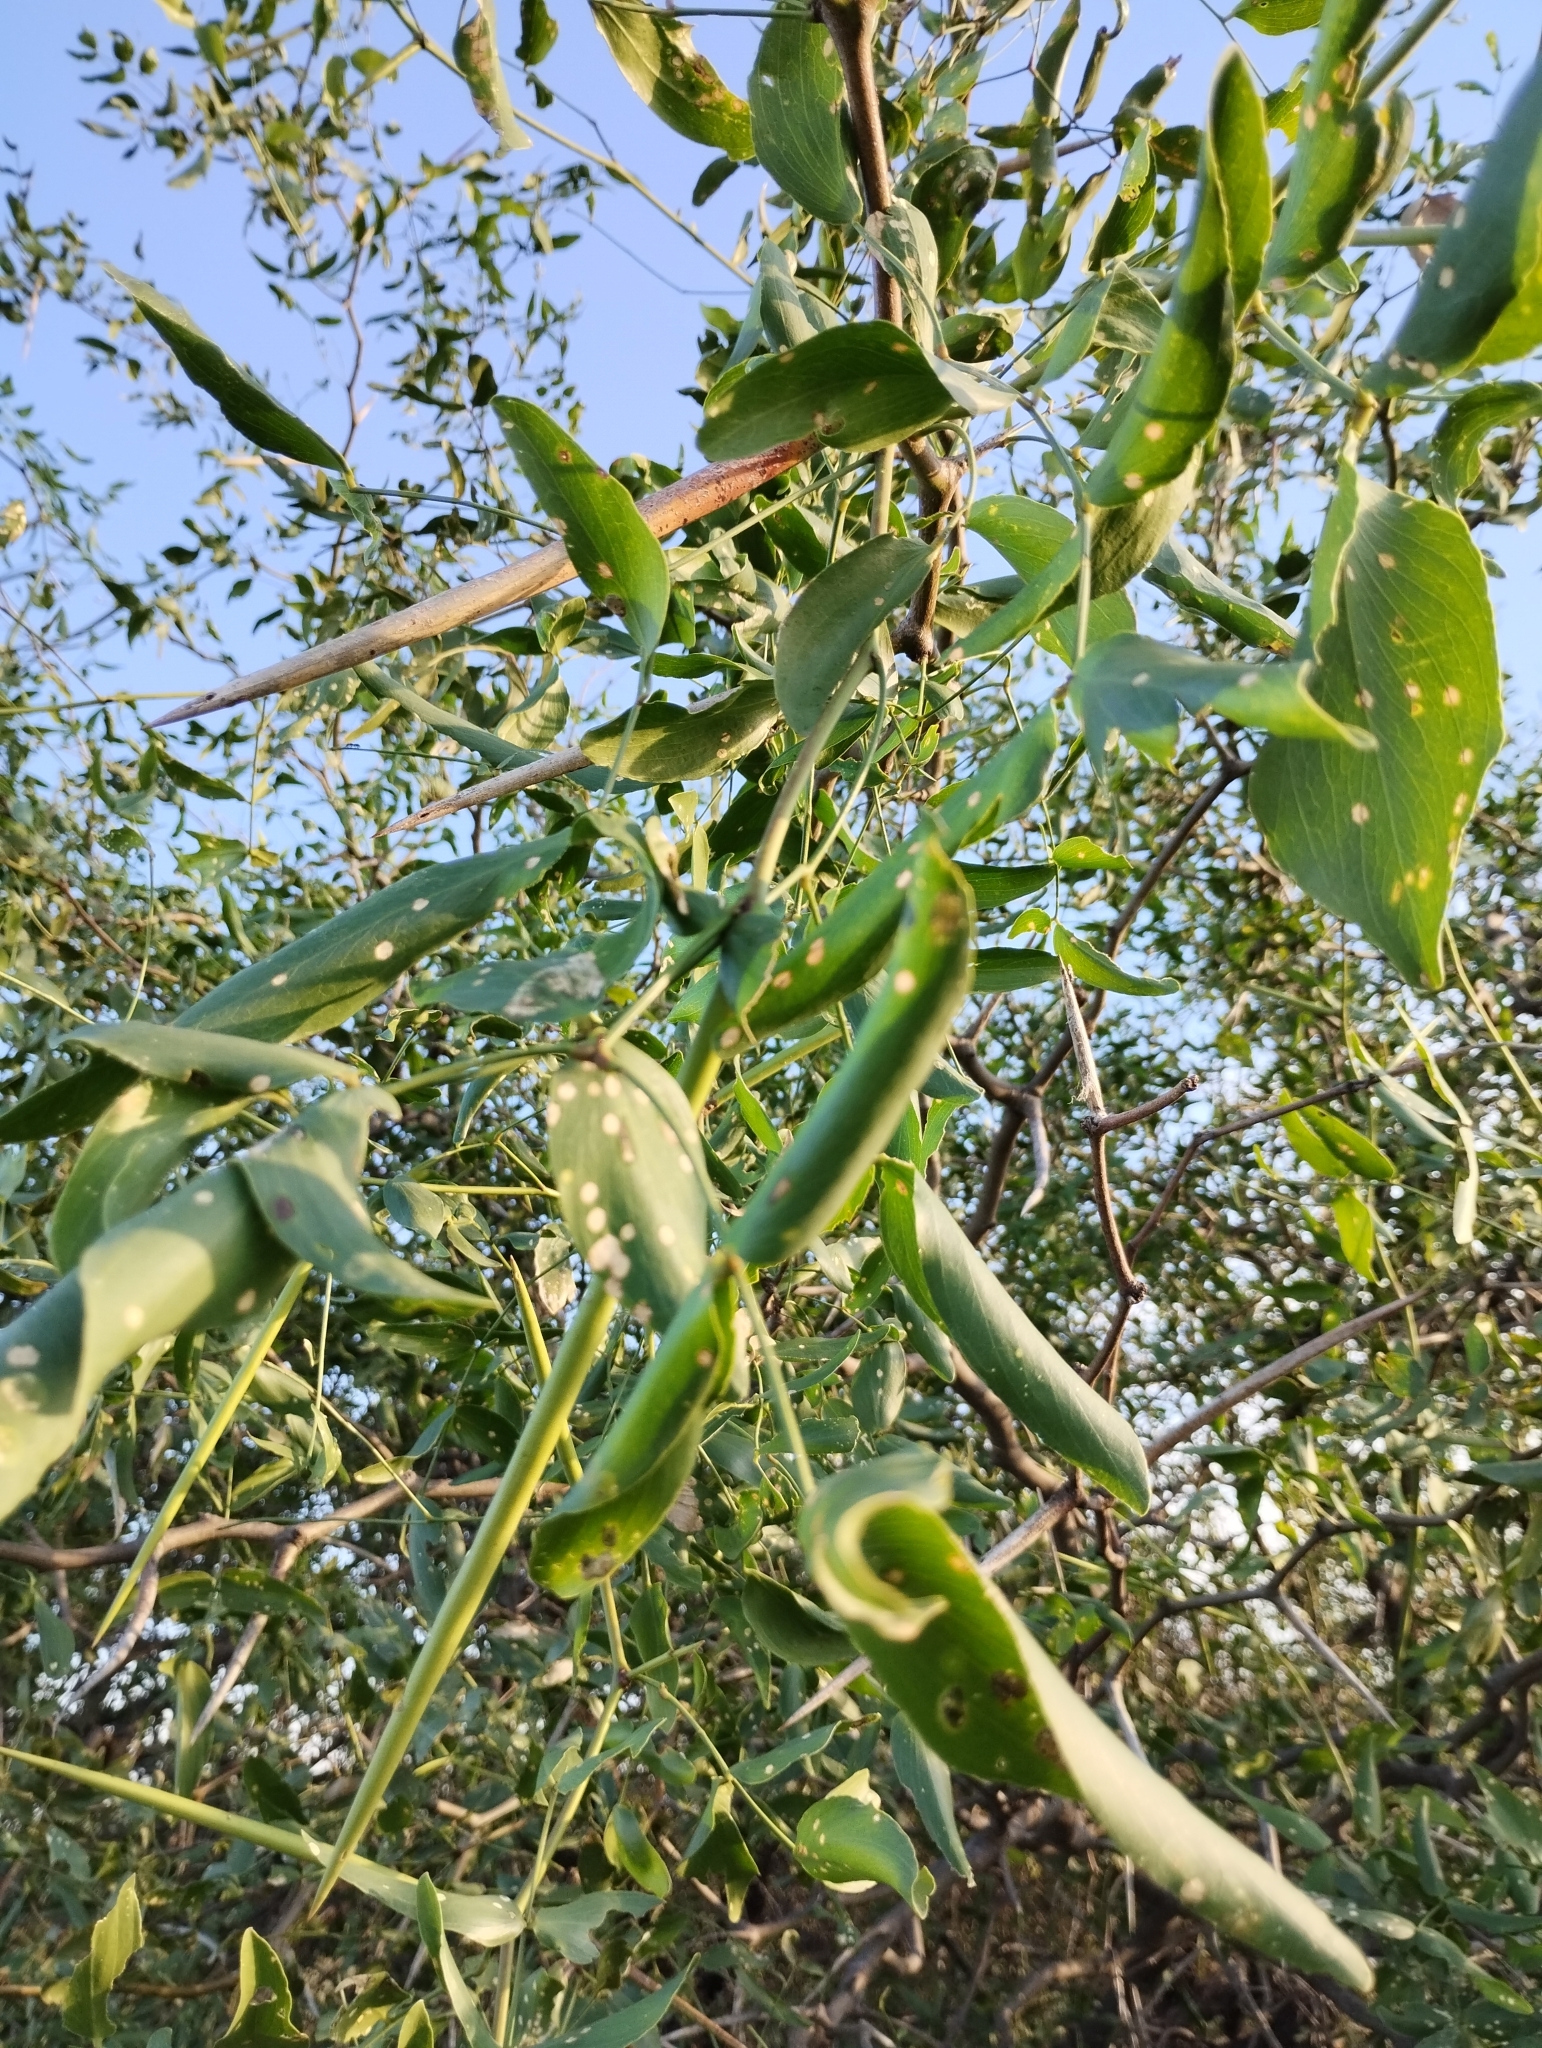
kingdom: Plantae
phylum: Tracheophyta
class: Magnoliopsida
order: Fabales
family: Fabaceae
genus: Prosopis
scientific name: Prosopis ruscifolia
